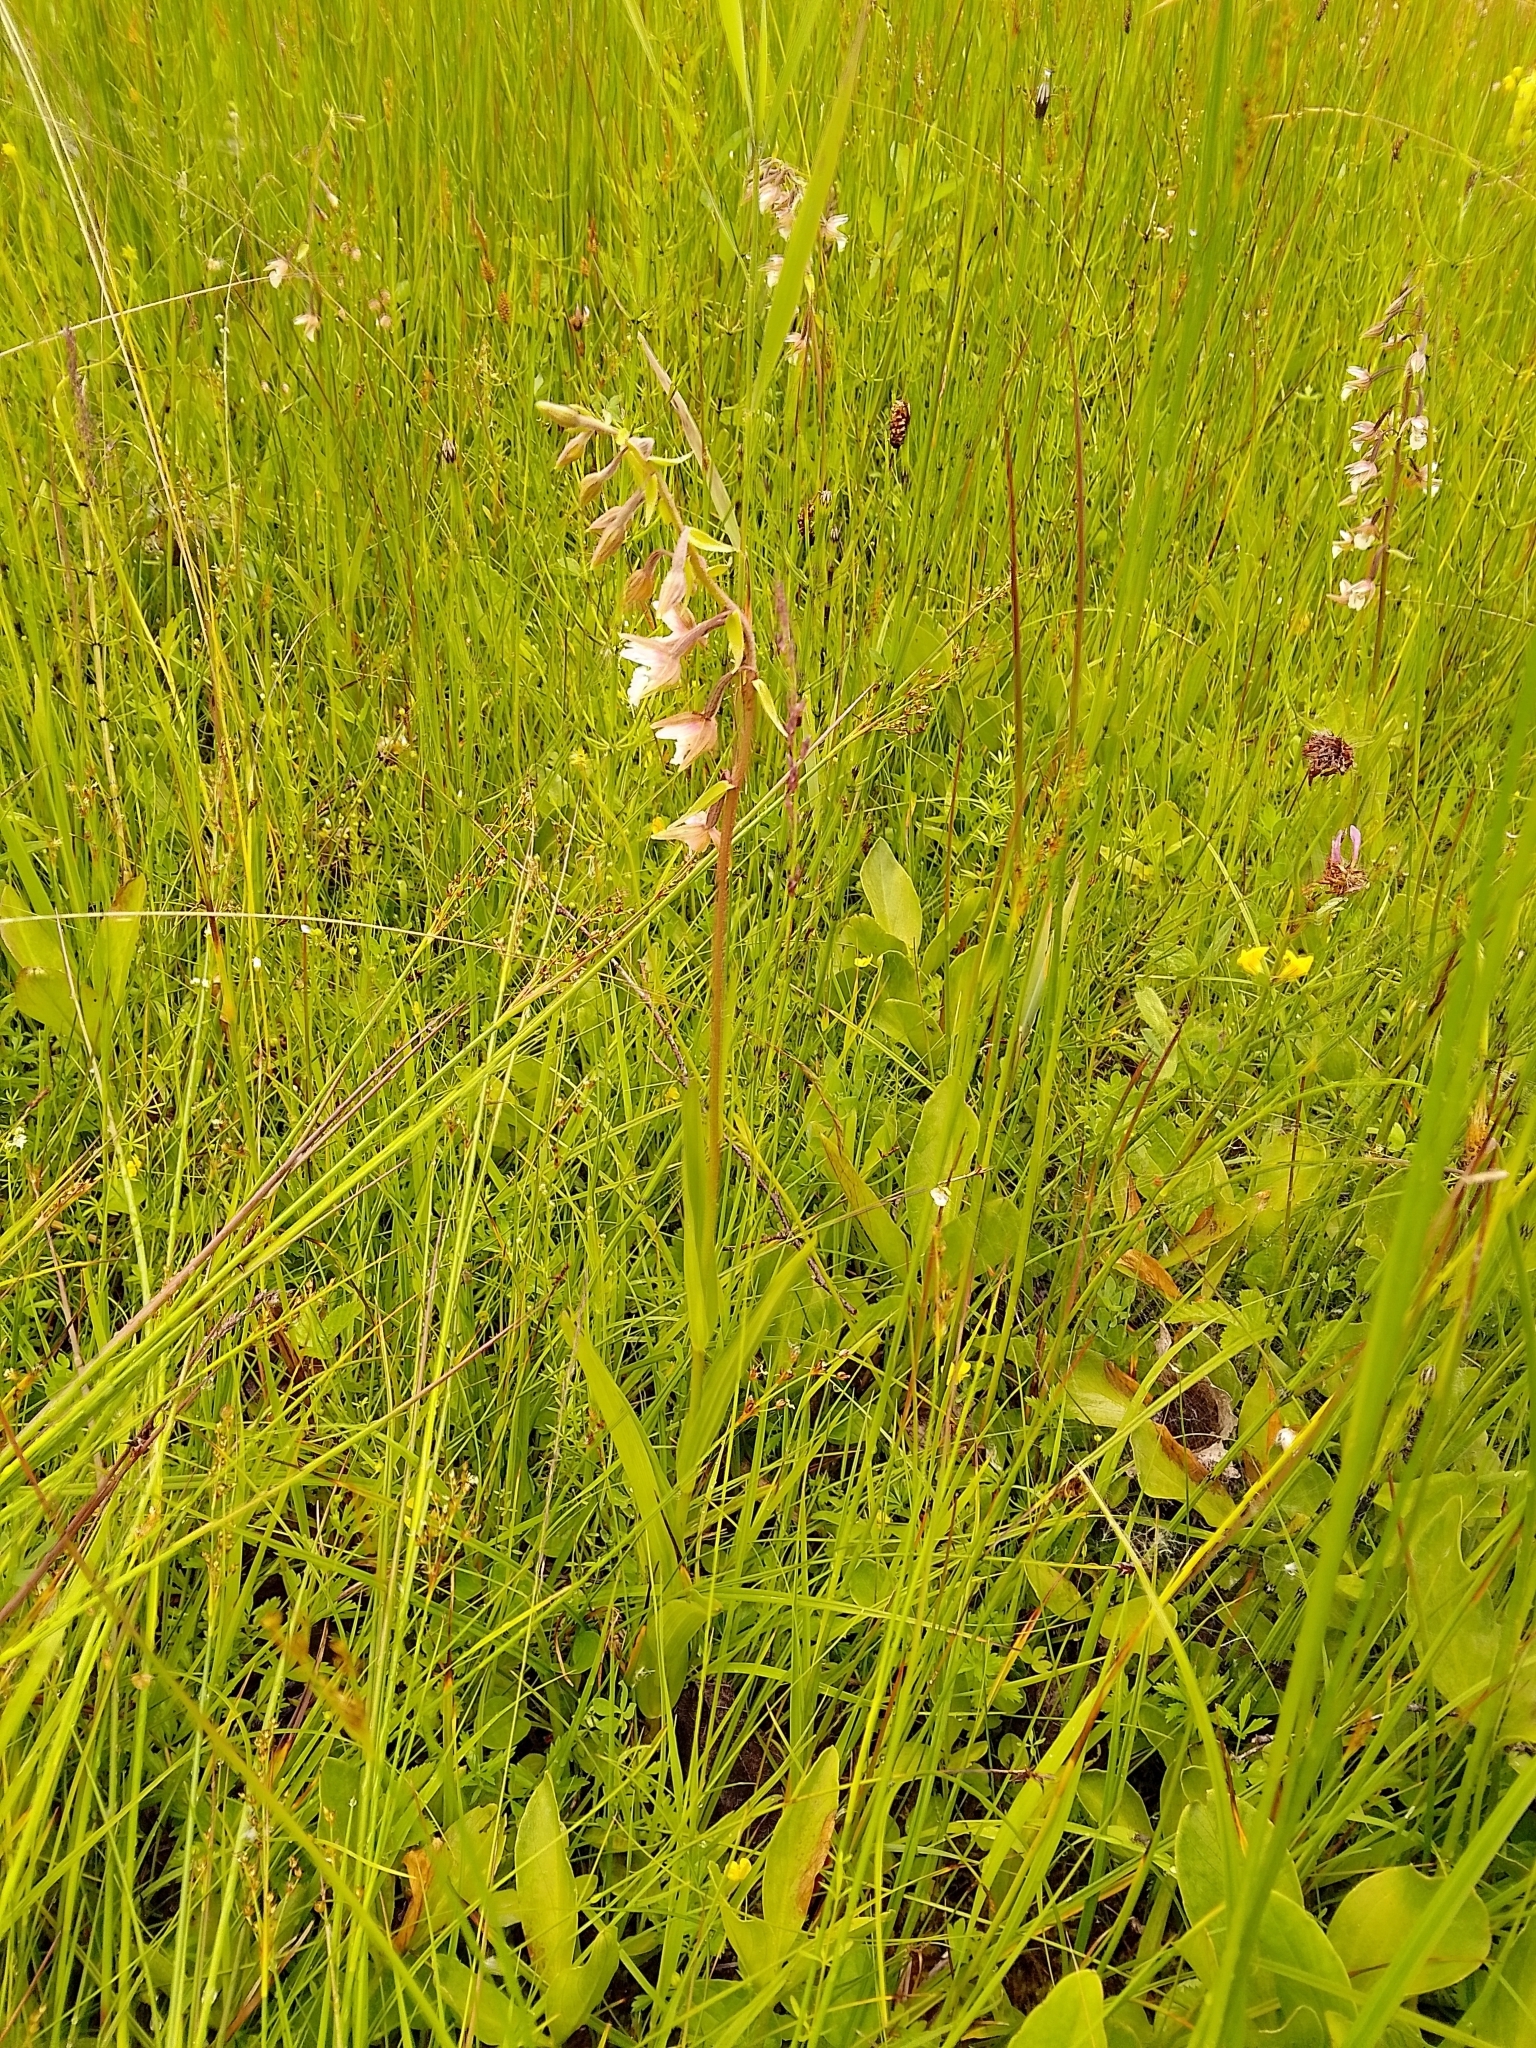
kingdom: Plantae
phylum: Tracheophyta
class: Liliopsida
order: Asparagales
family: Orchidaceae
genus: Epipactis
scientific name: Epipactis palustris
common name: Marsh helleborine
